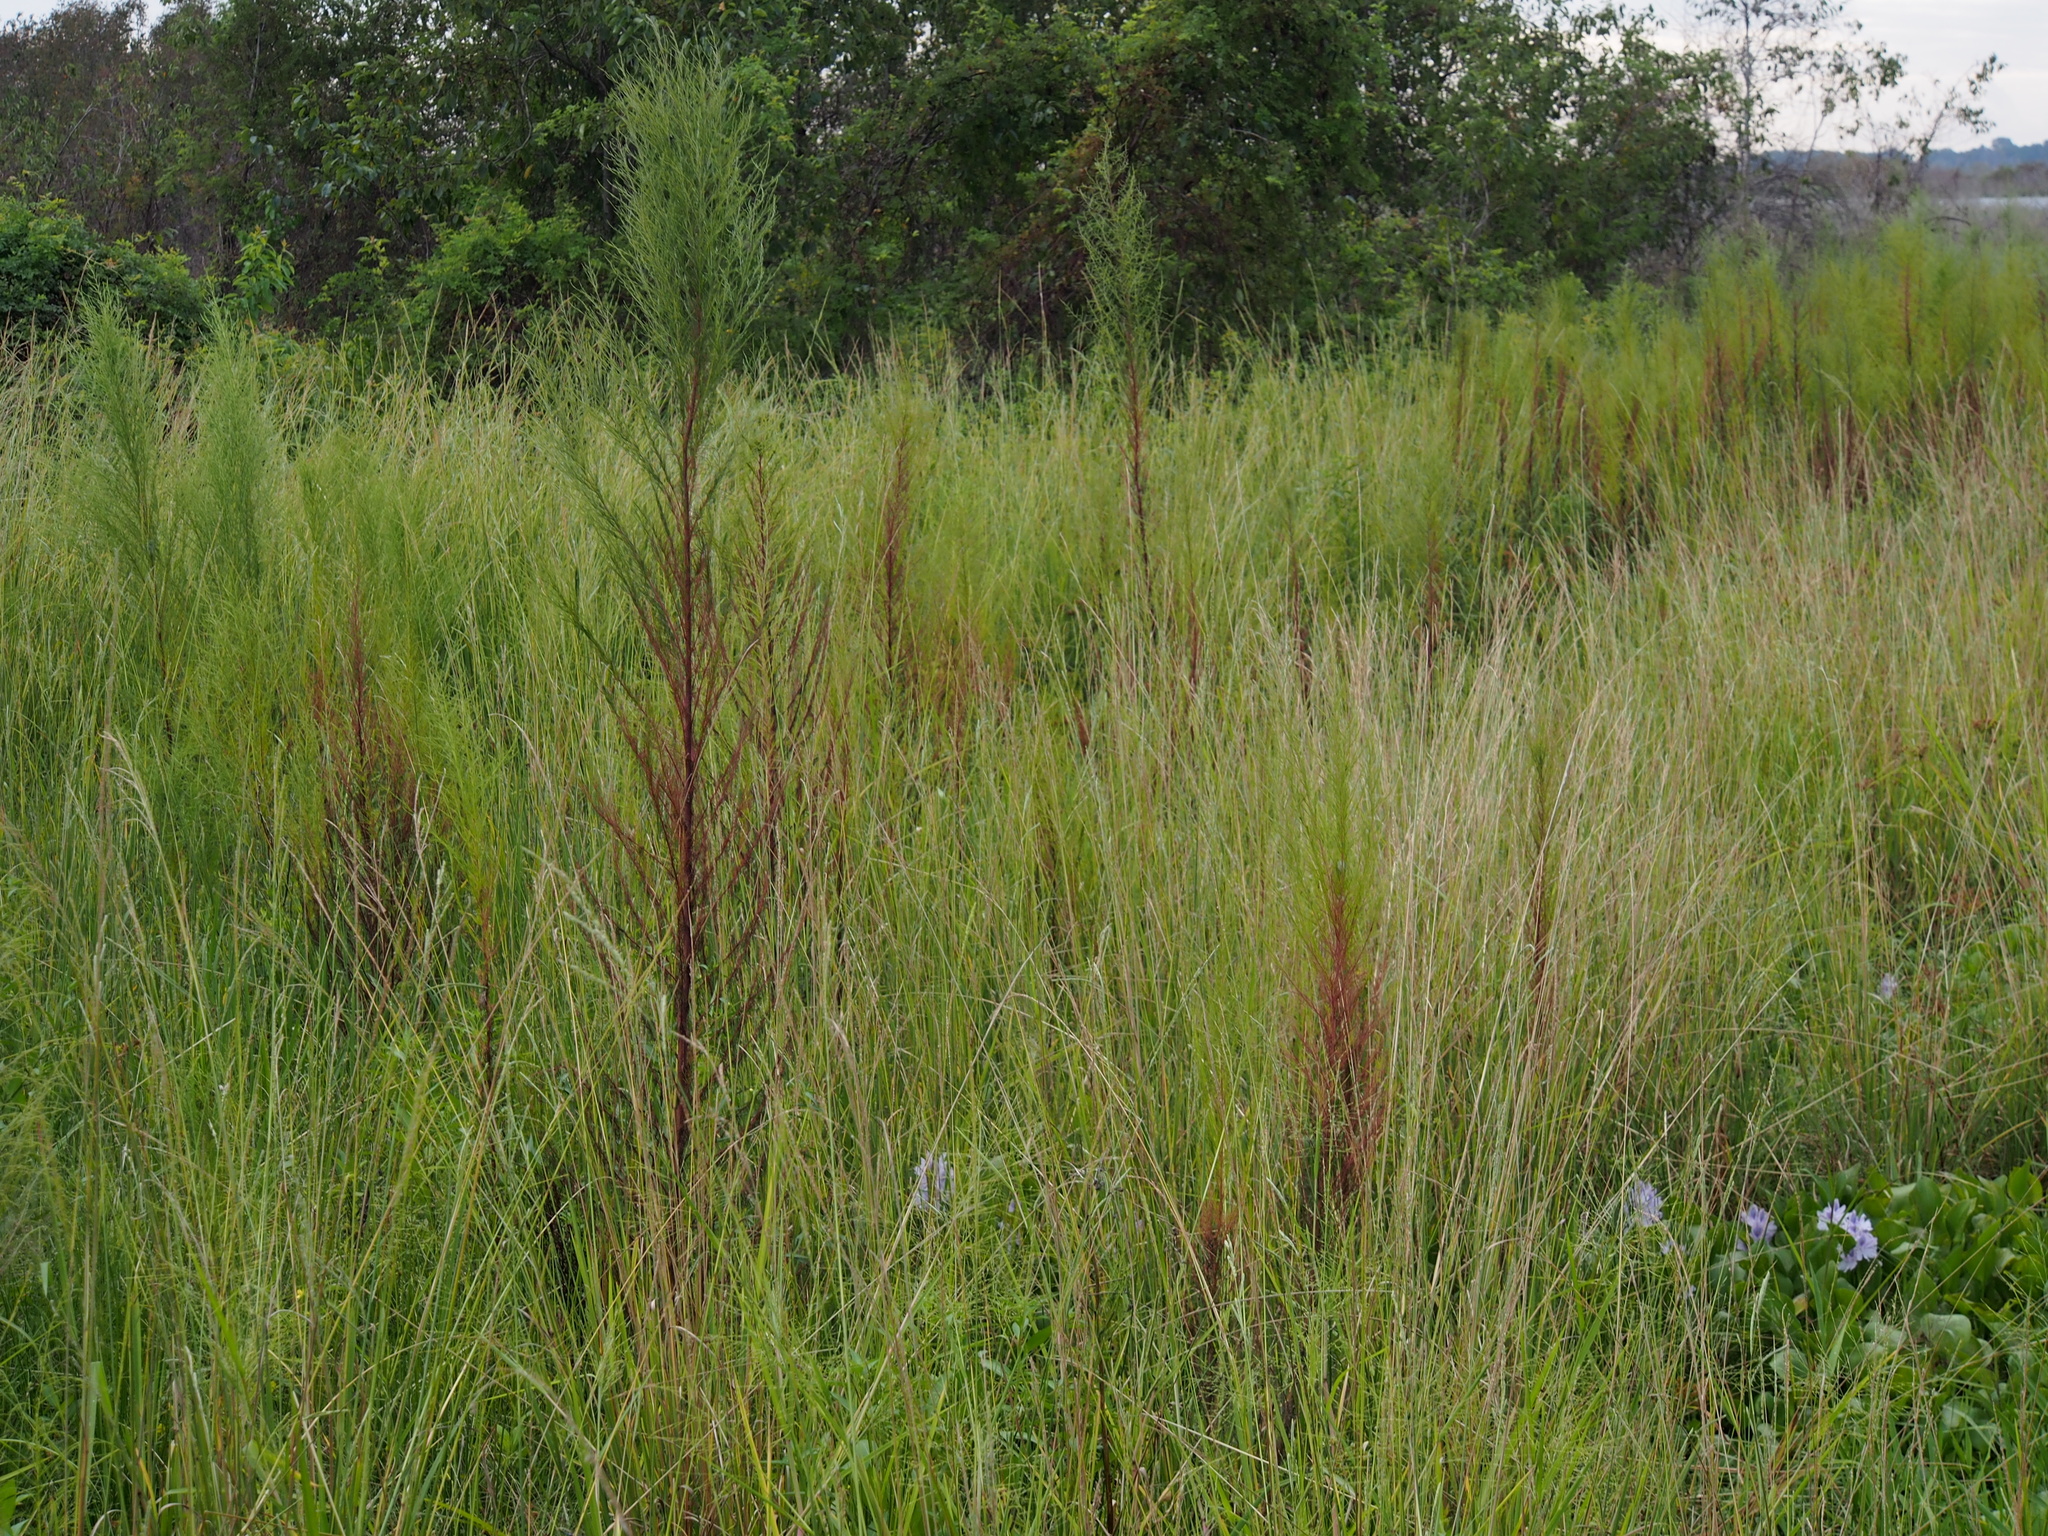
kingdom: Plantae
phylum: Tracheophyta
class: Magnoliopsida
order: Asterales
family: Asteraceae
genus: Eupatorium
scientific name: Eupatorium capillifolium
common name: Dog-fennel
